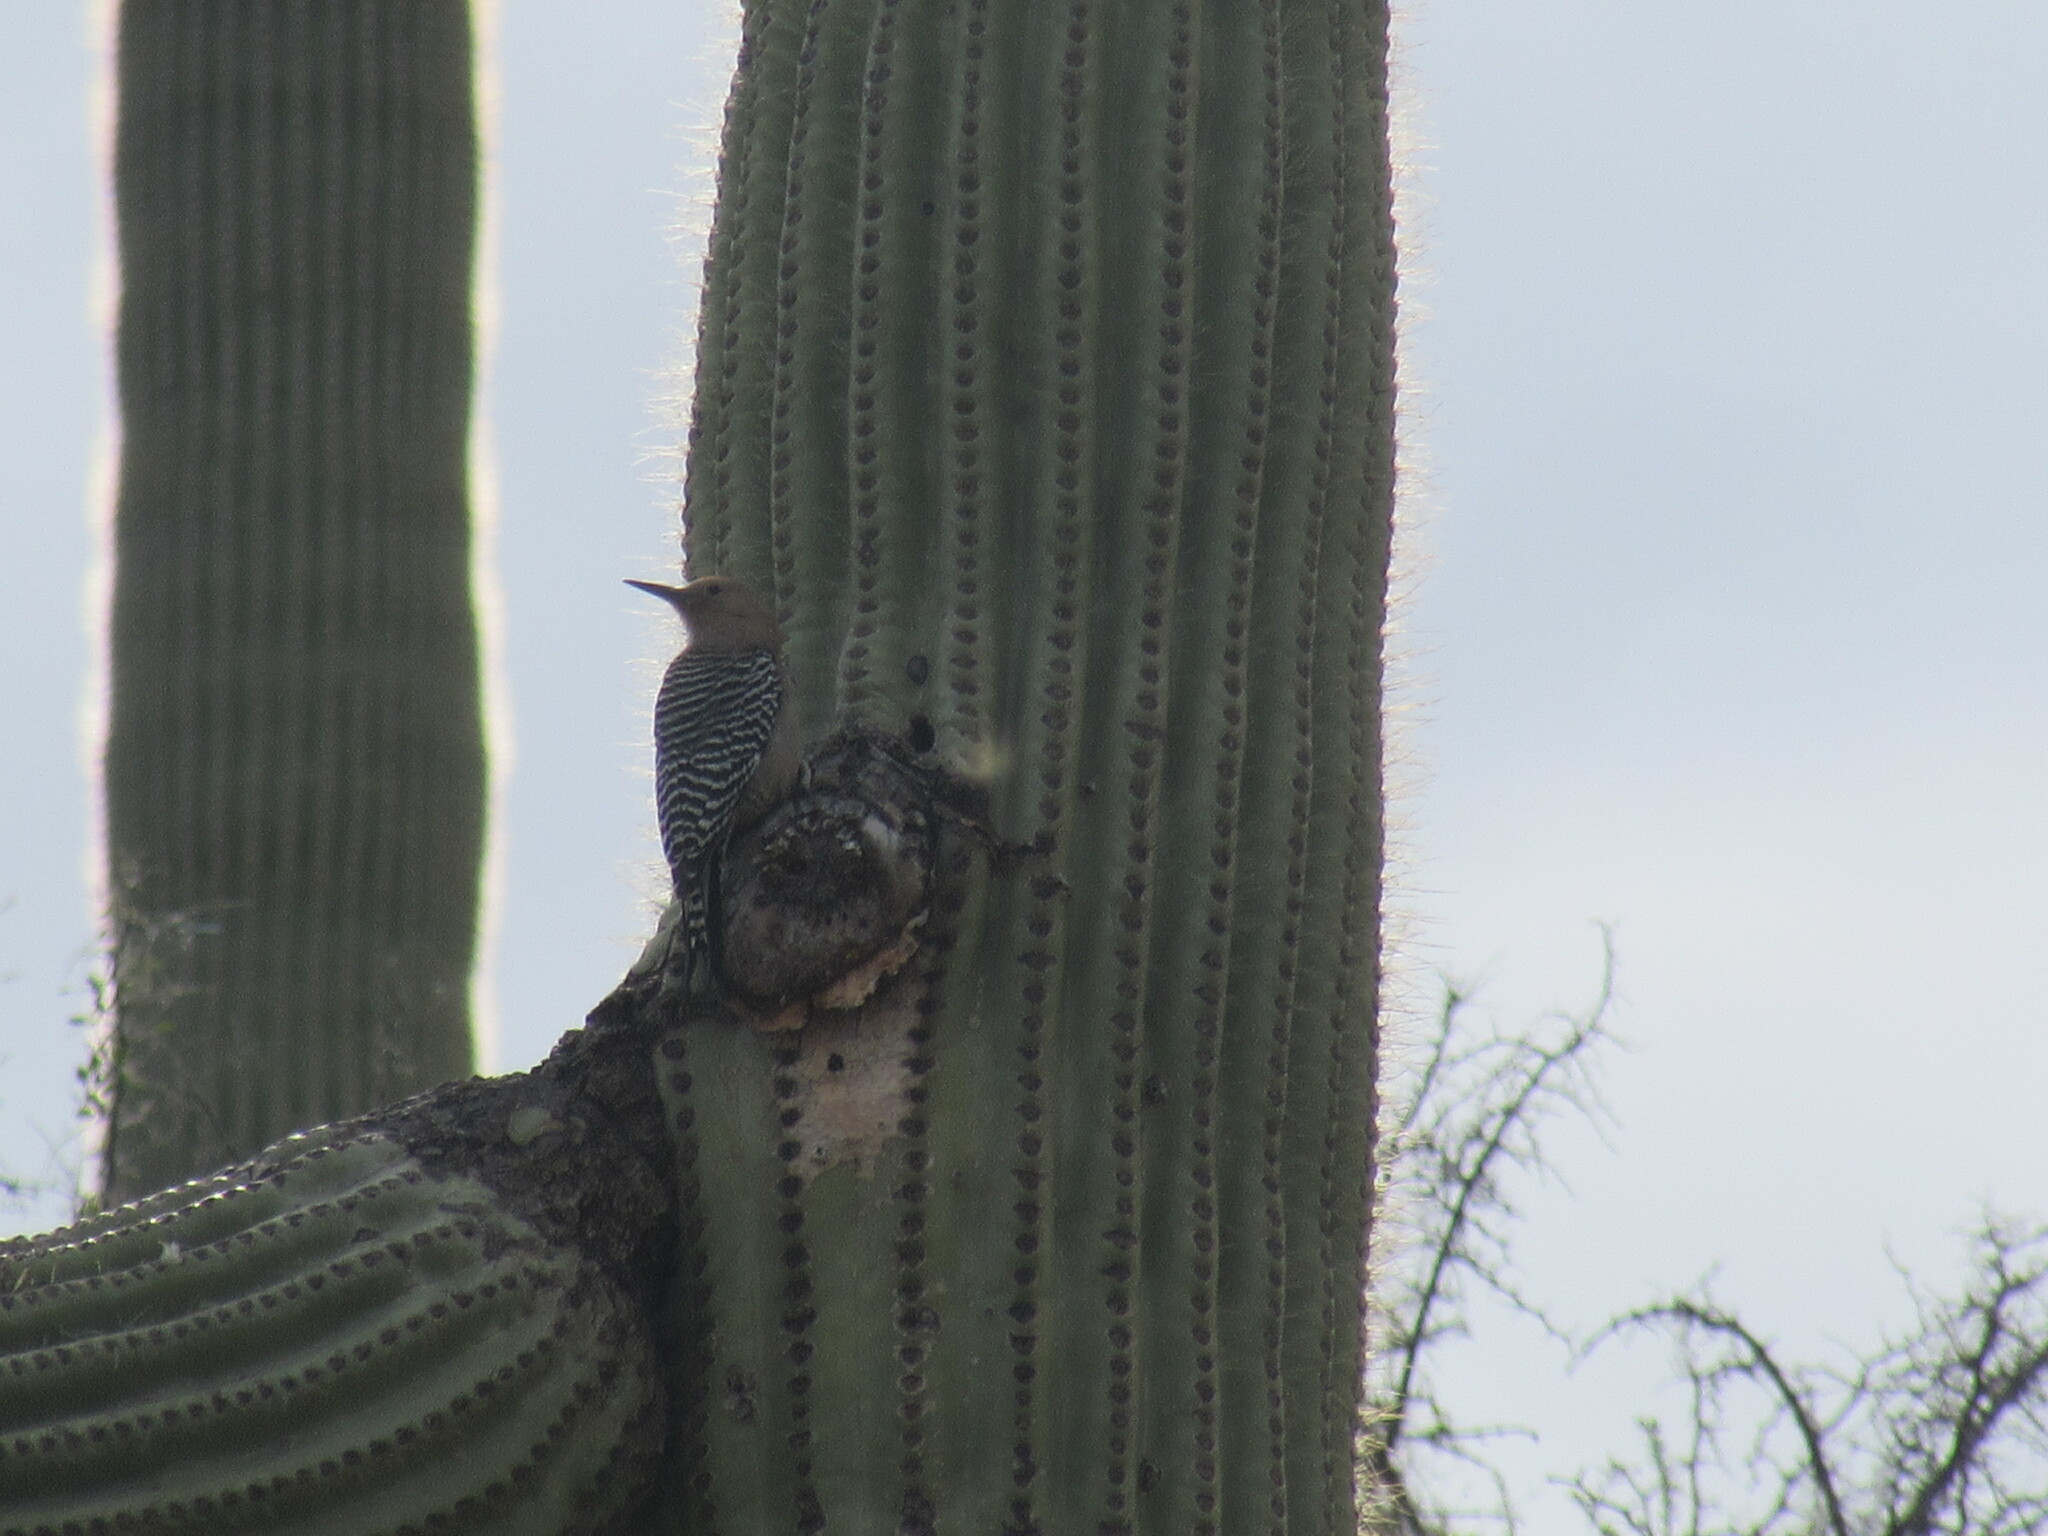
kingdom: Animalia
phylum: Chordata
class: Aves
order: Piciformes
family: Picidae
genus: Melanerpes
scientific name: Melanerpes uropygialis
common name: Gila woodpecker
